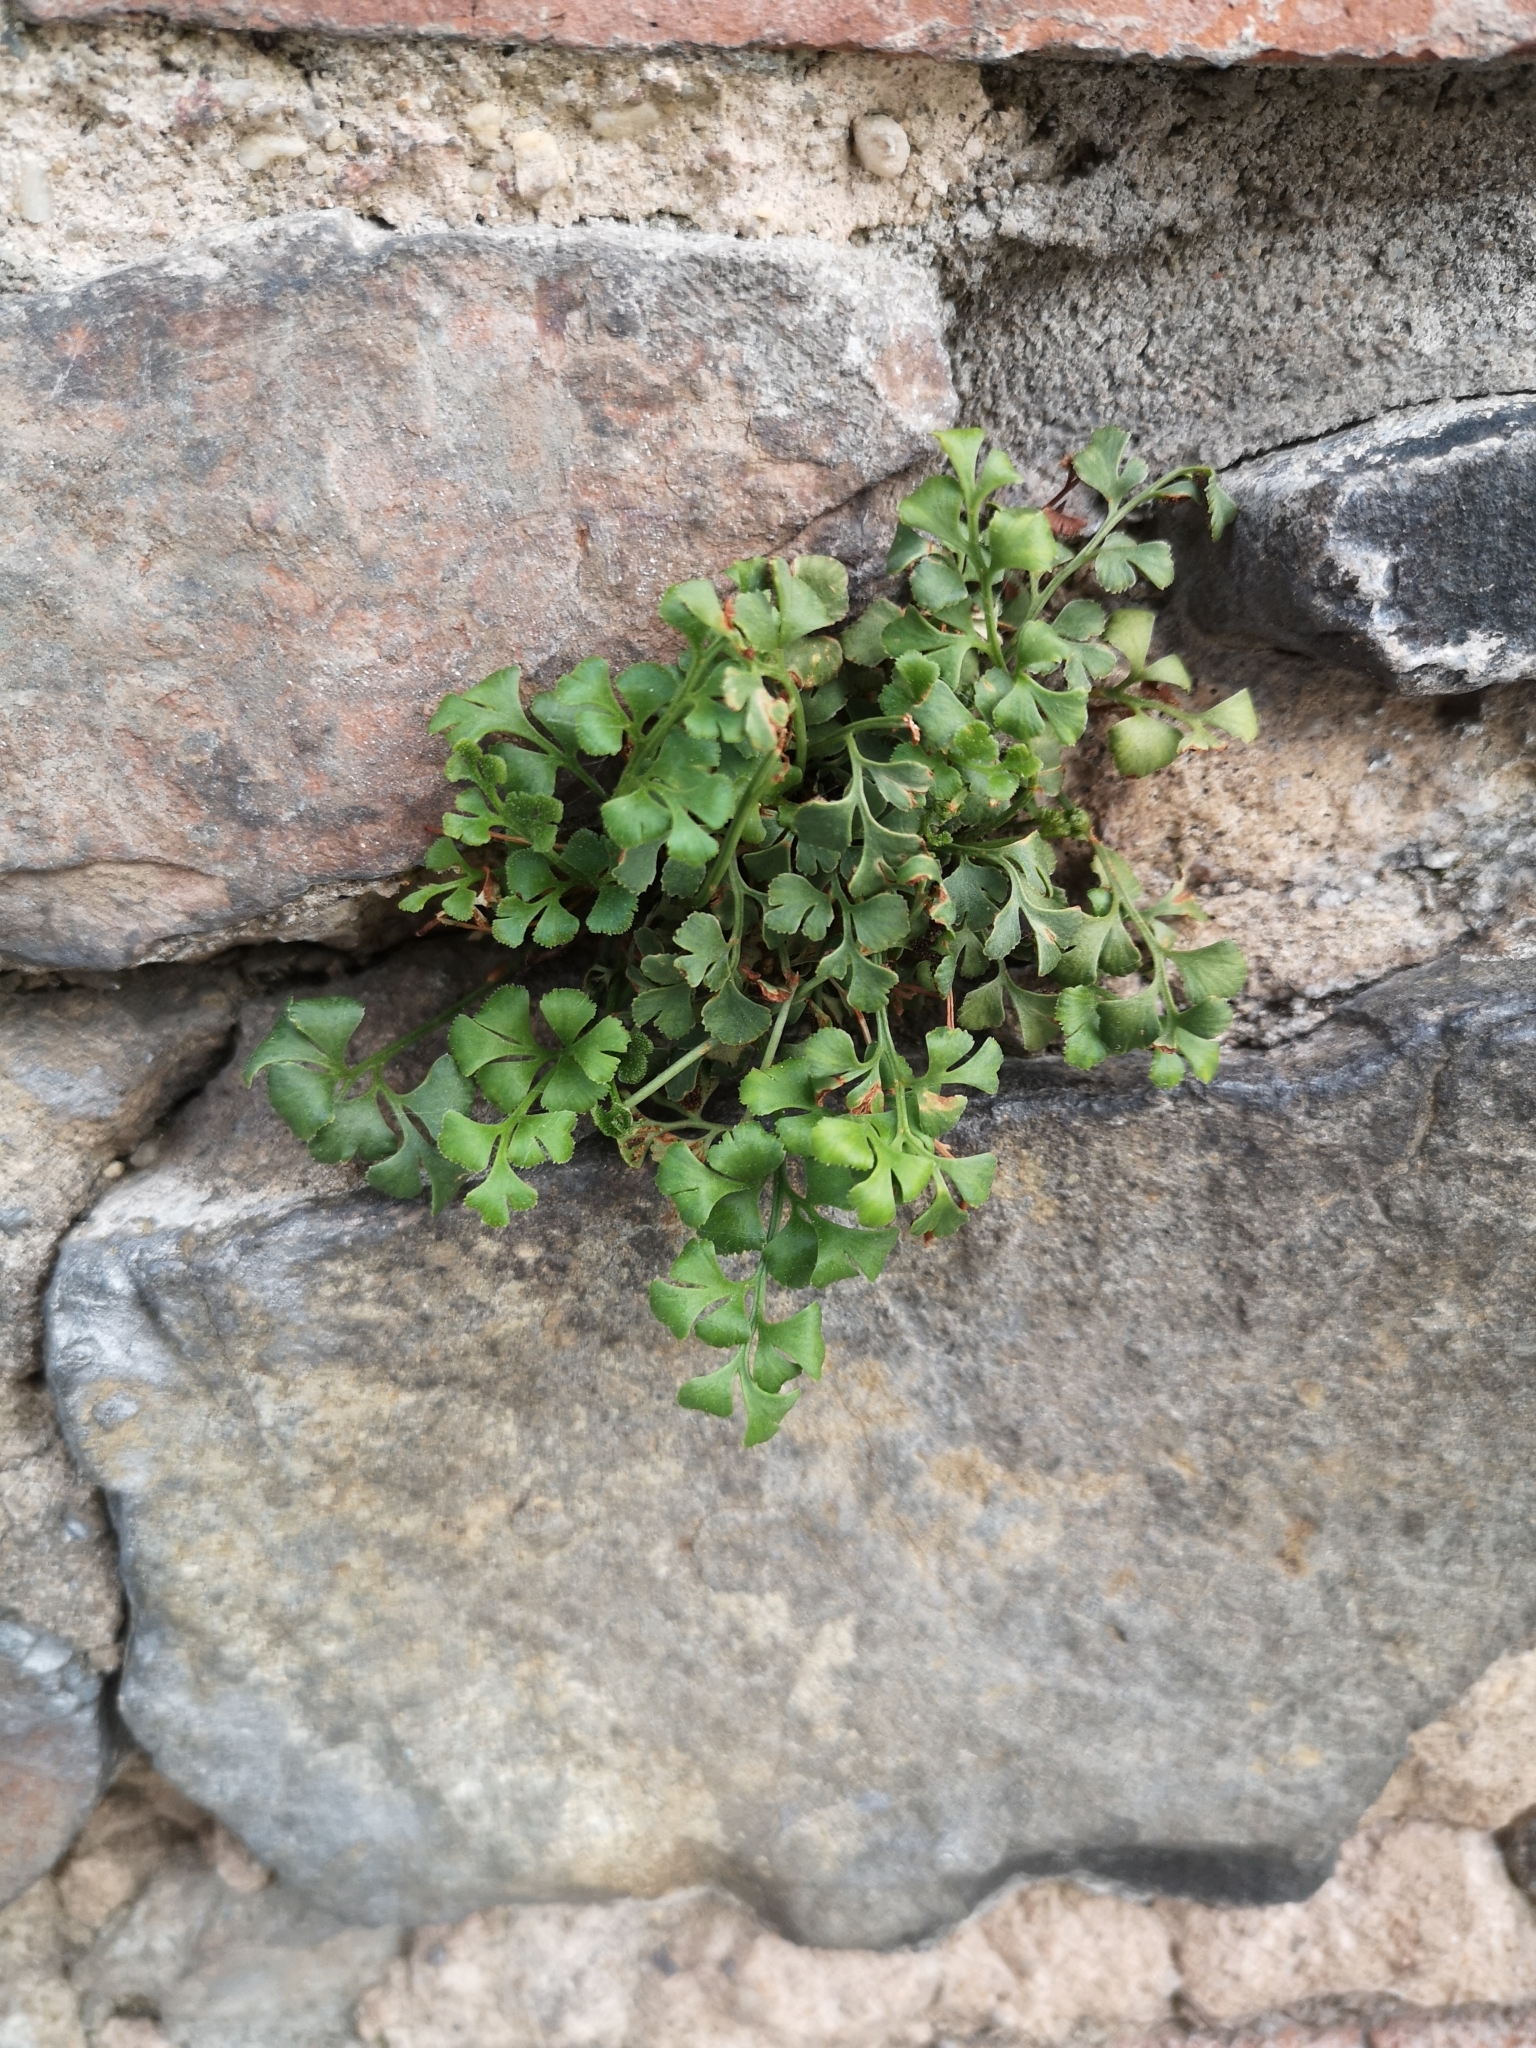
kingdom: Plantae
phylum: Tracheophyta
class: Polypodiopsida
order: Polypodiales
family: Aspleniaceae
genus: Asplenium
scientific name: Asplenium ruta-muraria
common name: Wall-rue
